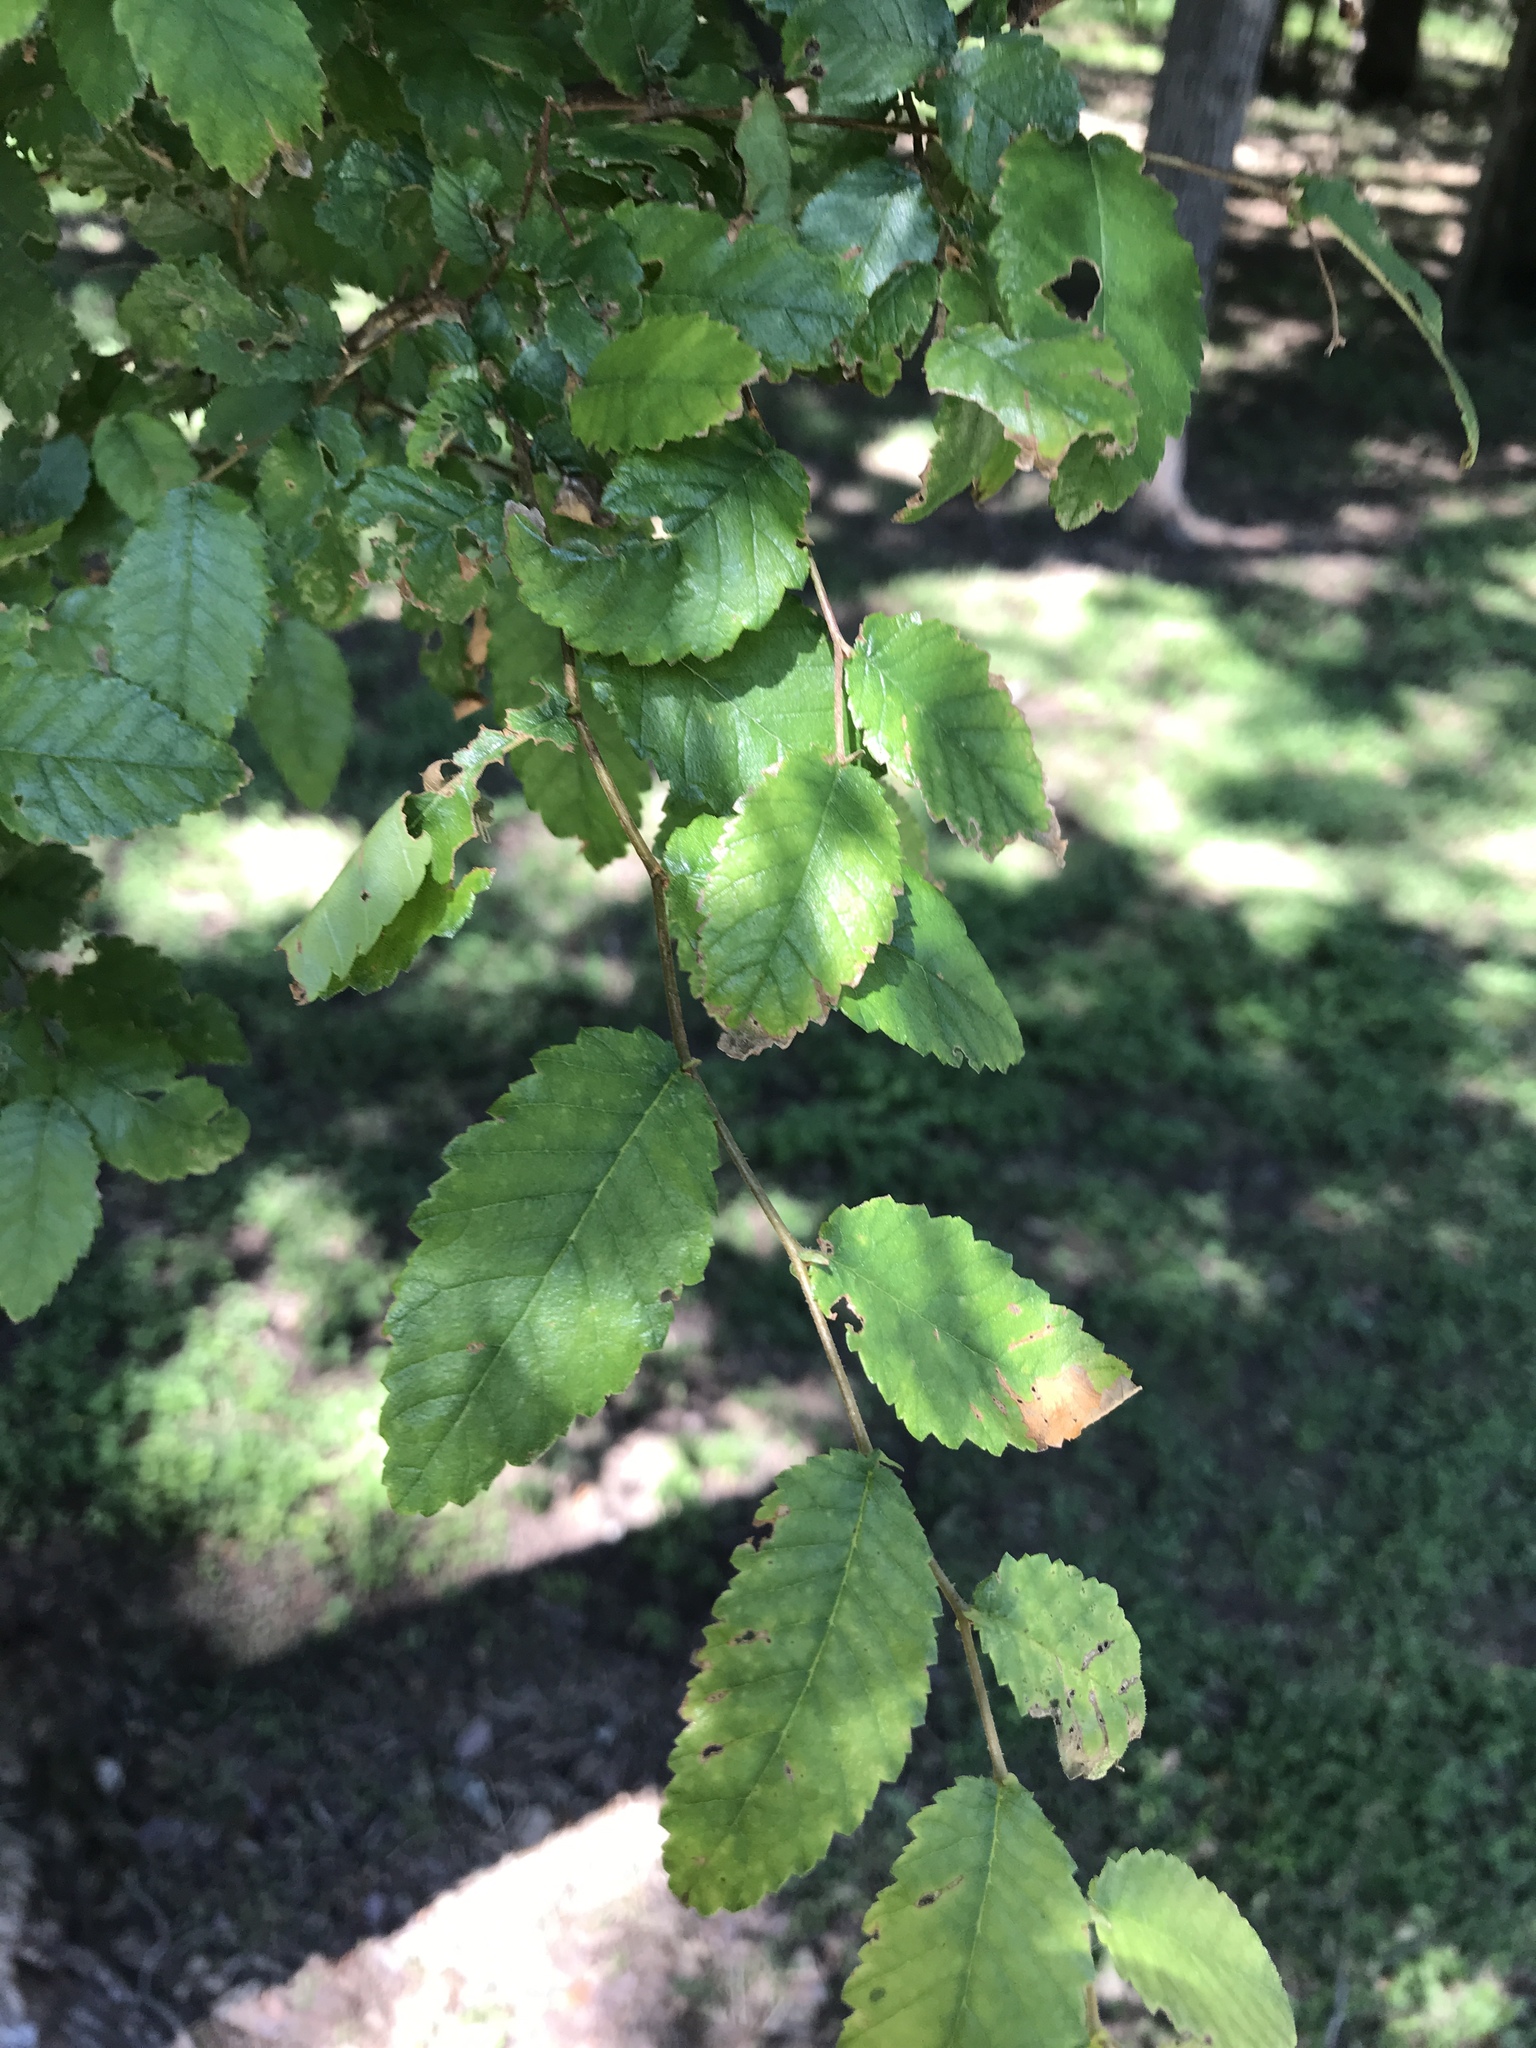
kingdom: Plantae
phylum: Tracheophyta
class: Magnoliopsida
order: Rosales
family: Ulmaceae
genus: Ulmus
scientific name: Ulmus crassifolia
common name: Basket elm
